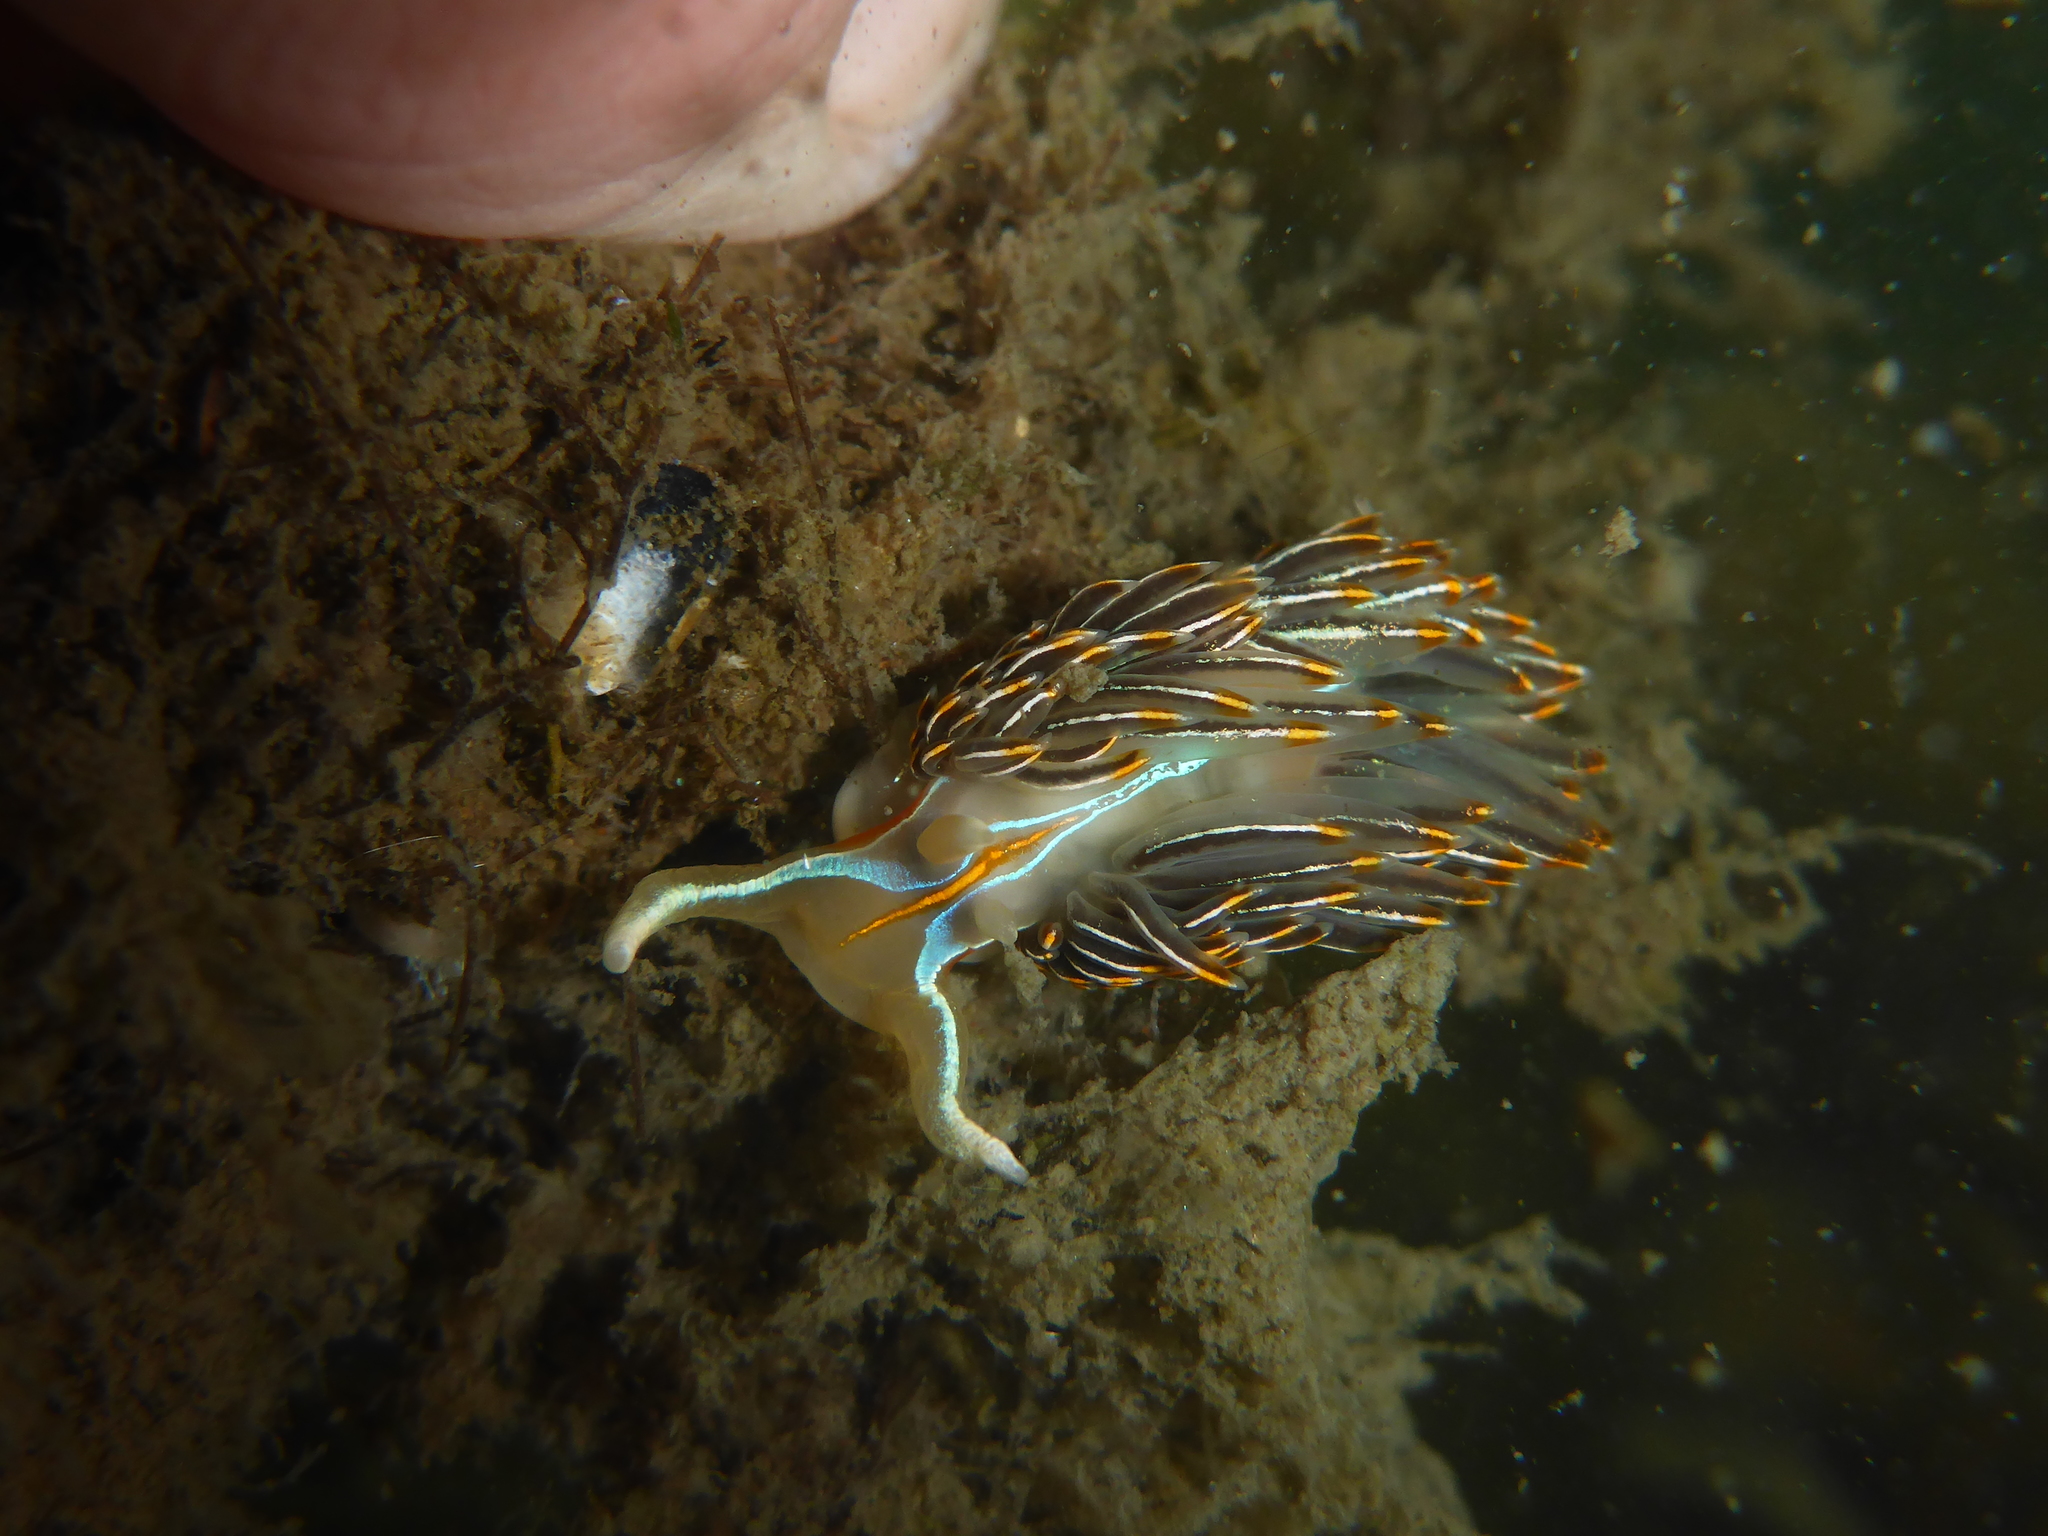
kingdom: Animalia
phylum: Mollusca
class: Gastropoda
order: Nudibranchia
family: Myrrhinidae
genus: Hermissenda
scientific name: Hermissenda crassicornis
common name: Hermissenda
